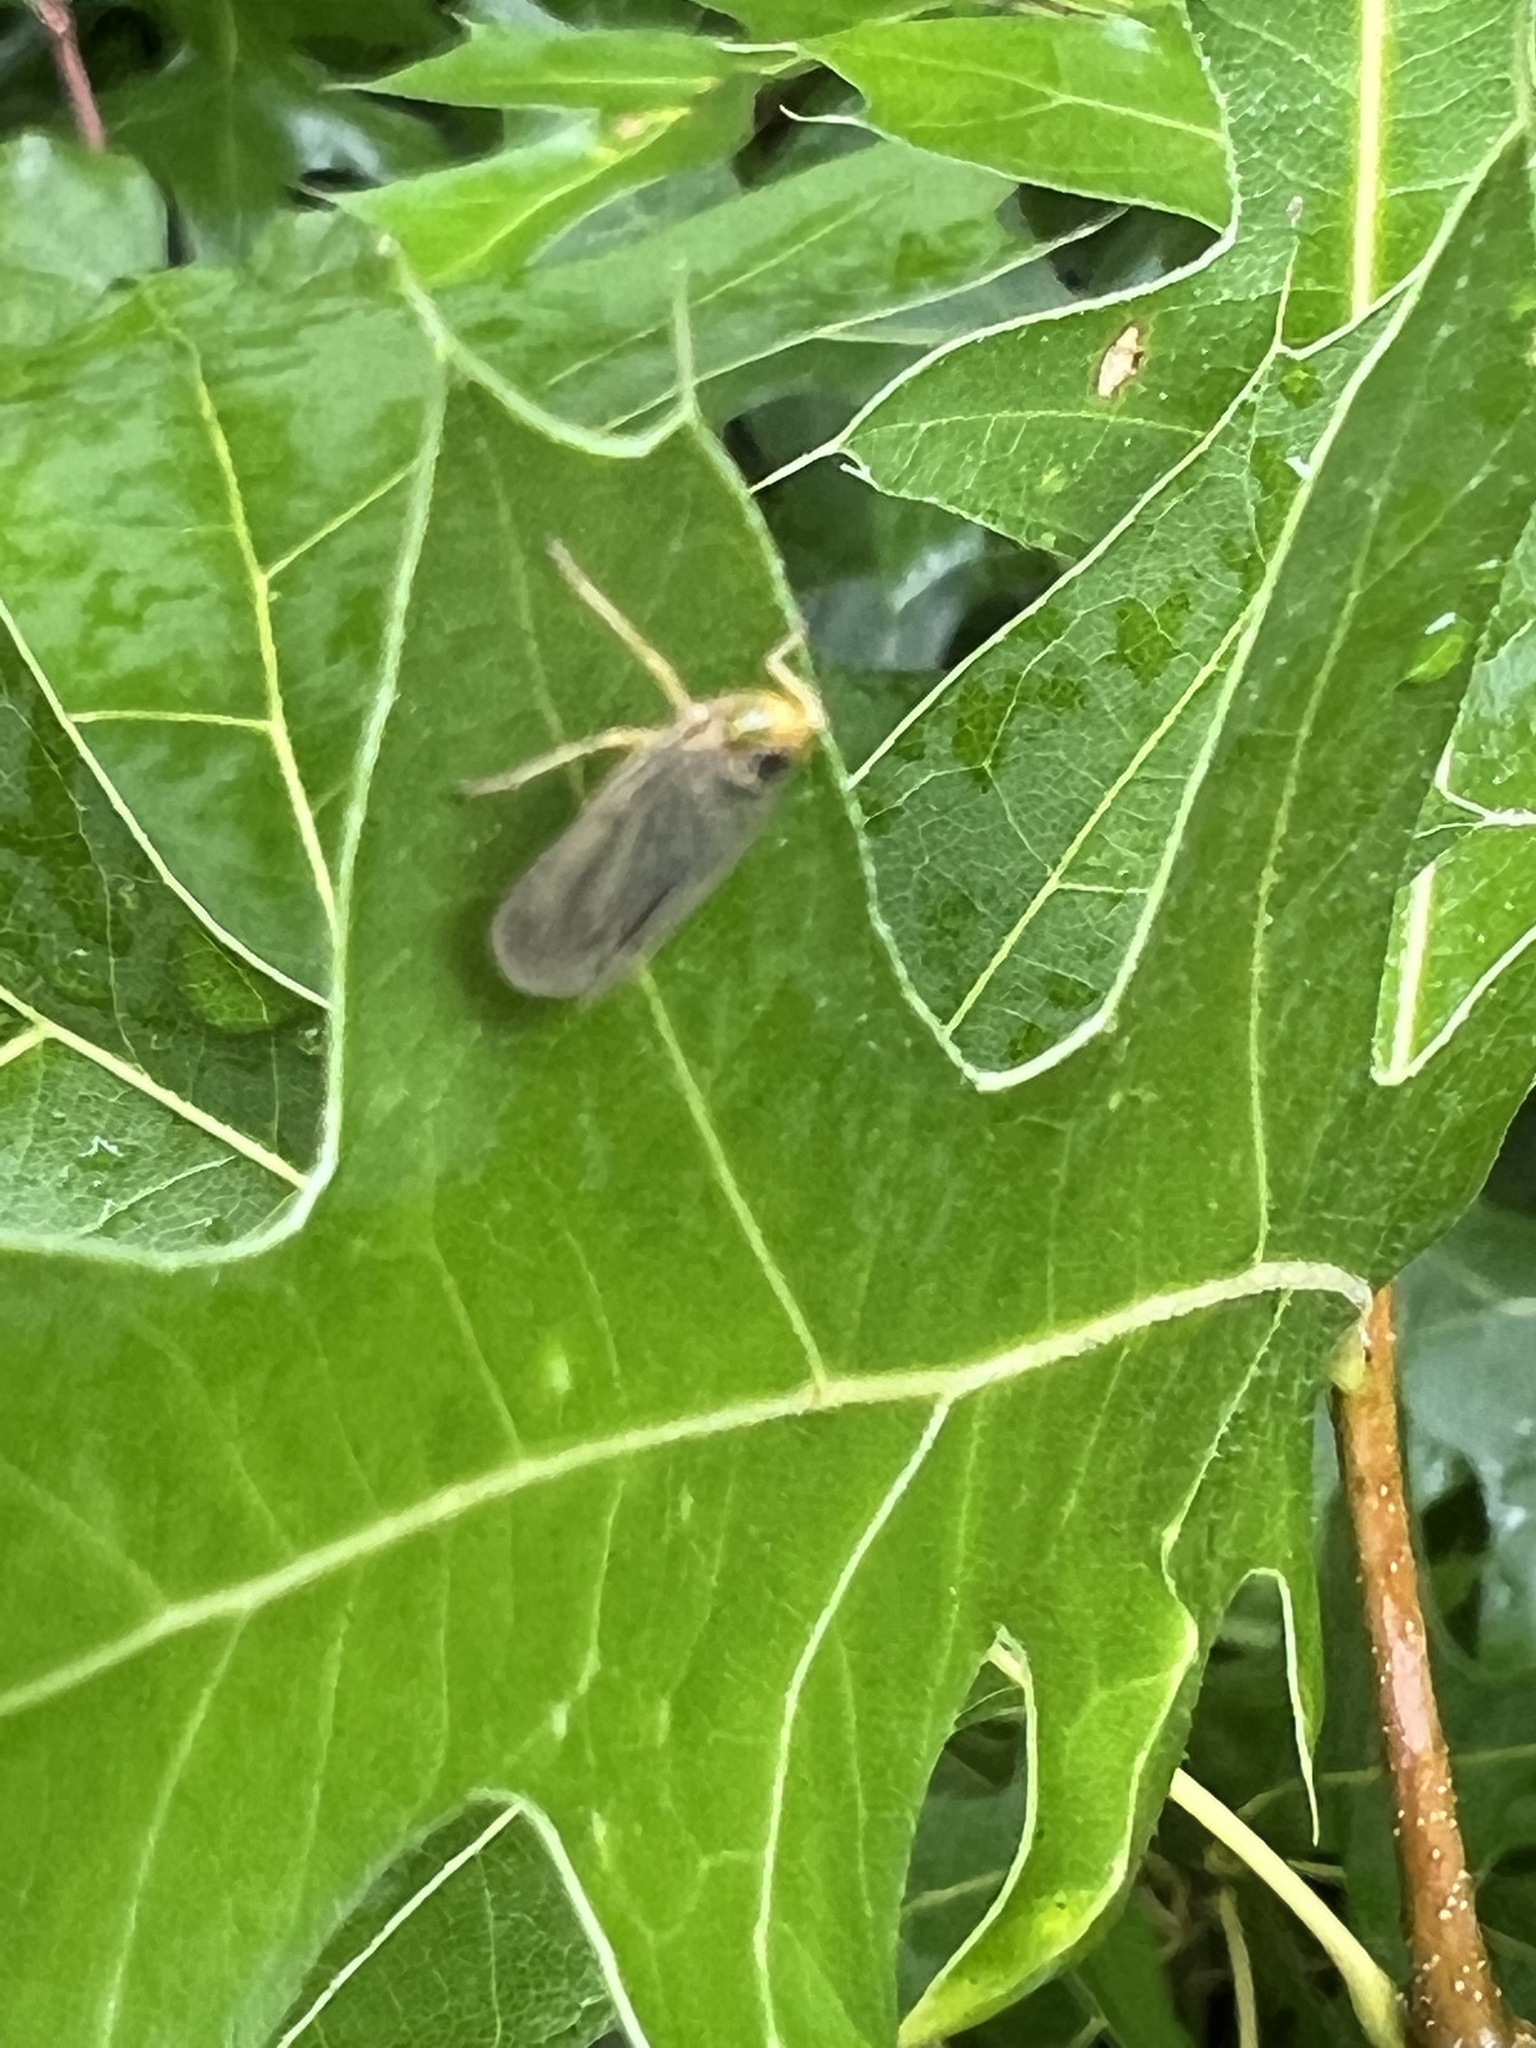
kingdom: Animalia
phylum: Arthropoda
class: Insecta
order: Hemiptera
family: Cicadellidae
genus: Jikradia
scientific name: Jikradia olitoria
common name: Coppery leafhopper
